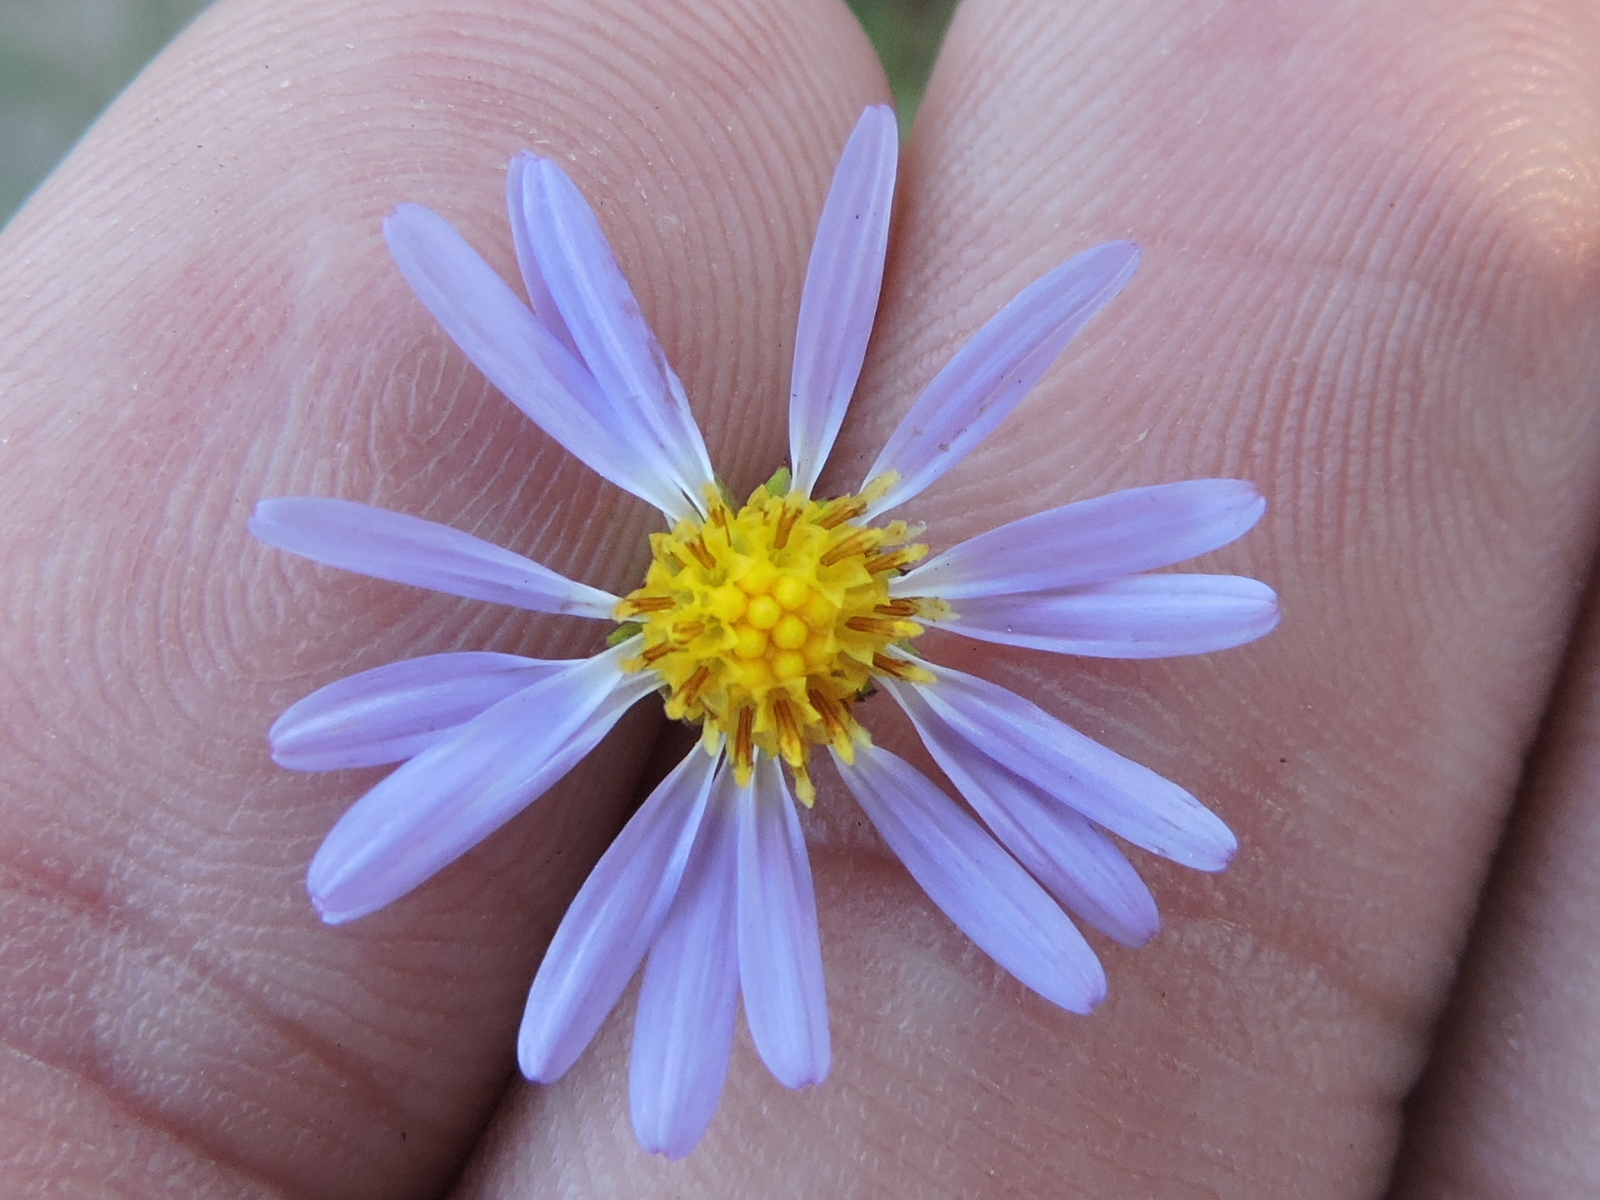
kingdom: Plantae
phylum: Tracheophyta
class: Magnoliopsida
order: Asterales
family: Asteraceae
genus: Symphyotrichum
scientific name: Symphyotrichum divaricatum
